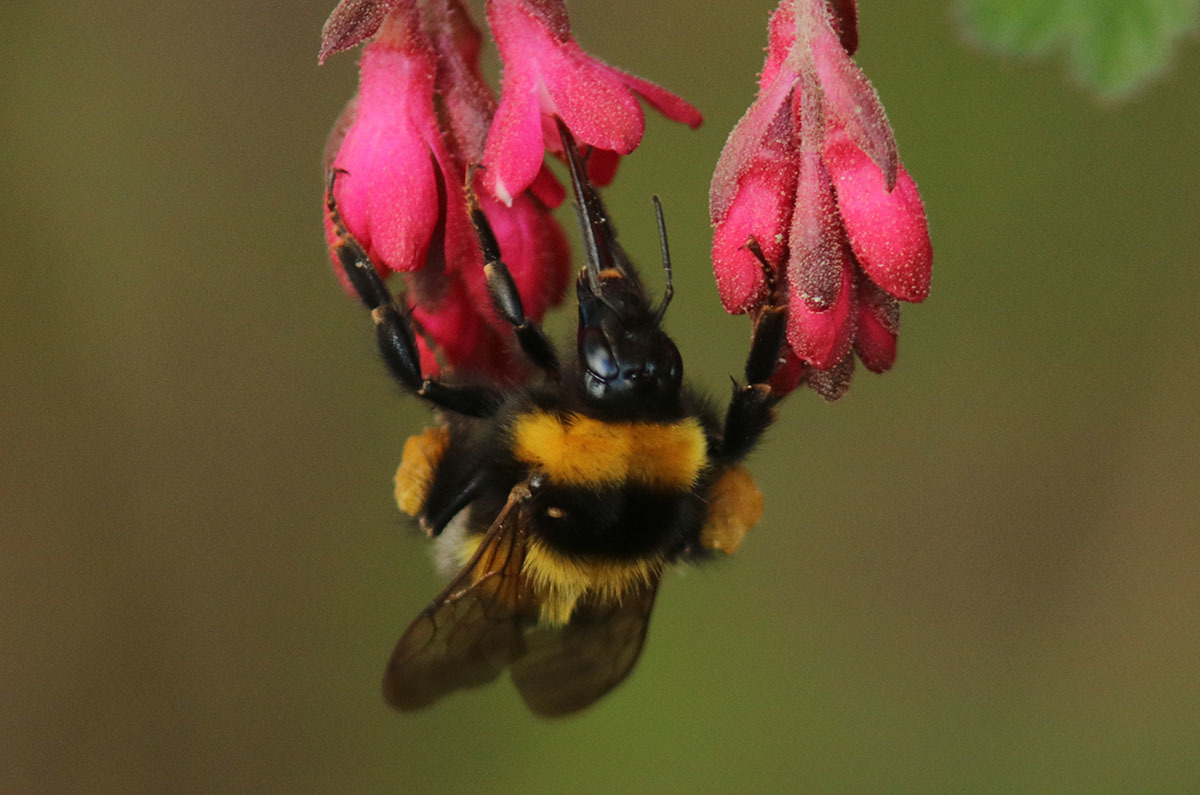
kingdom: Animalia
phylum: Arthropoda
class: Insecta
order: Hymenoptera
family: Apidae
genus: Bombus
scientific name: Bombus hortorum
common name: Garden bumblebee
